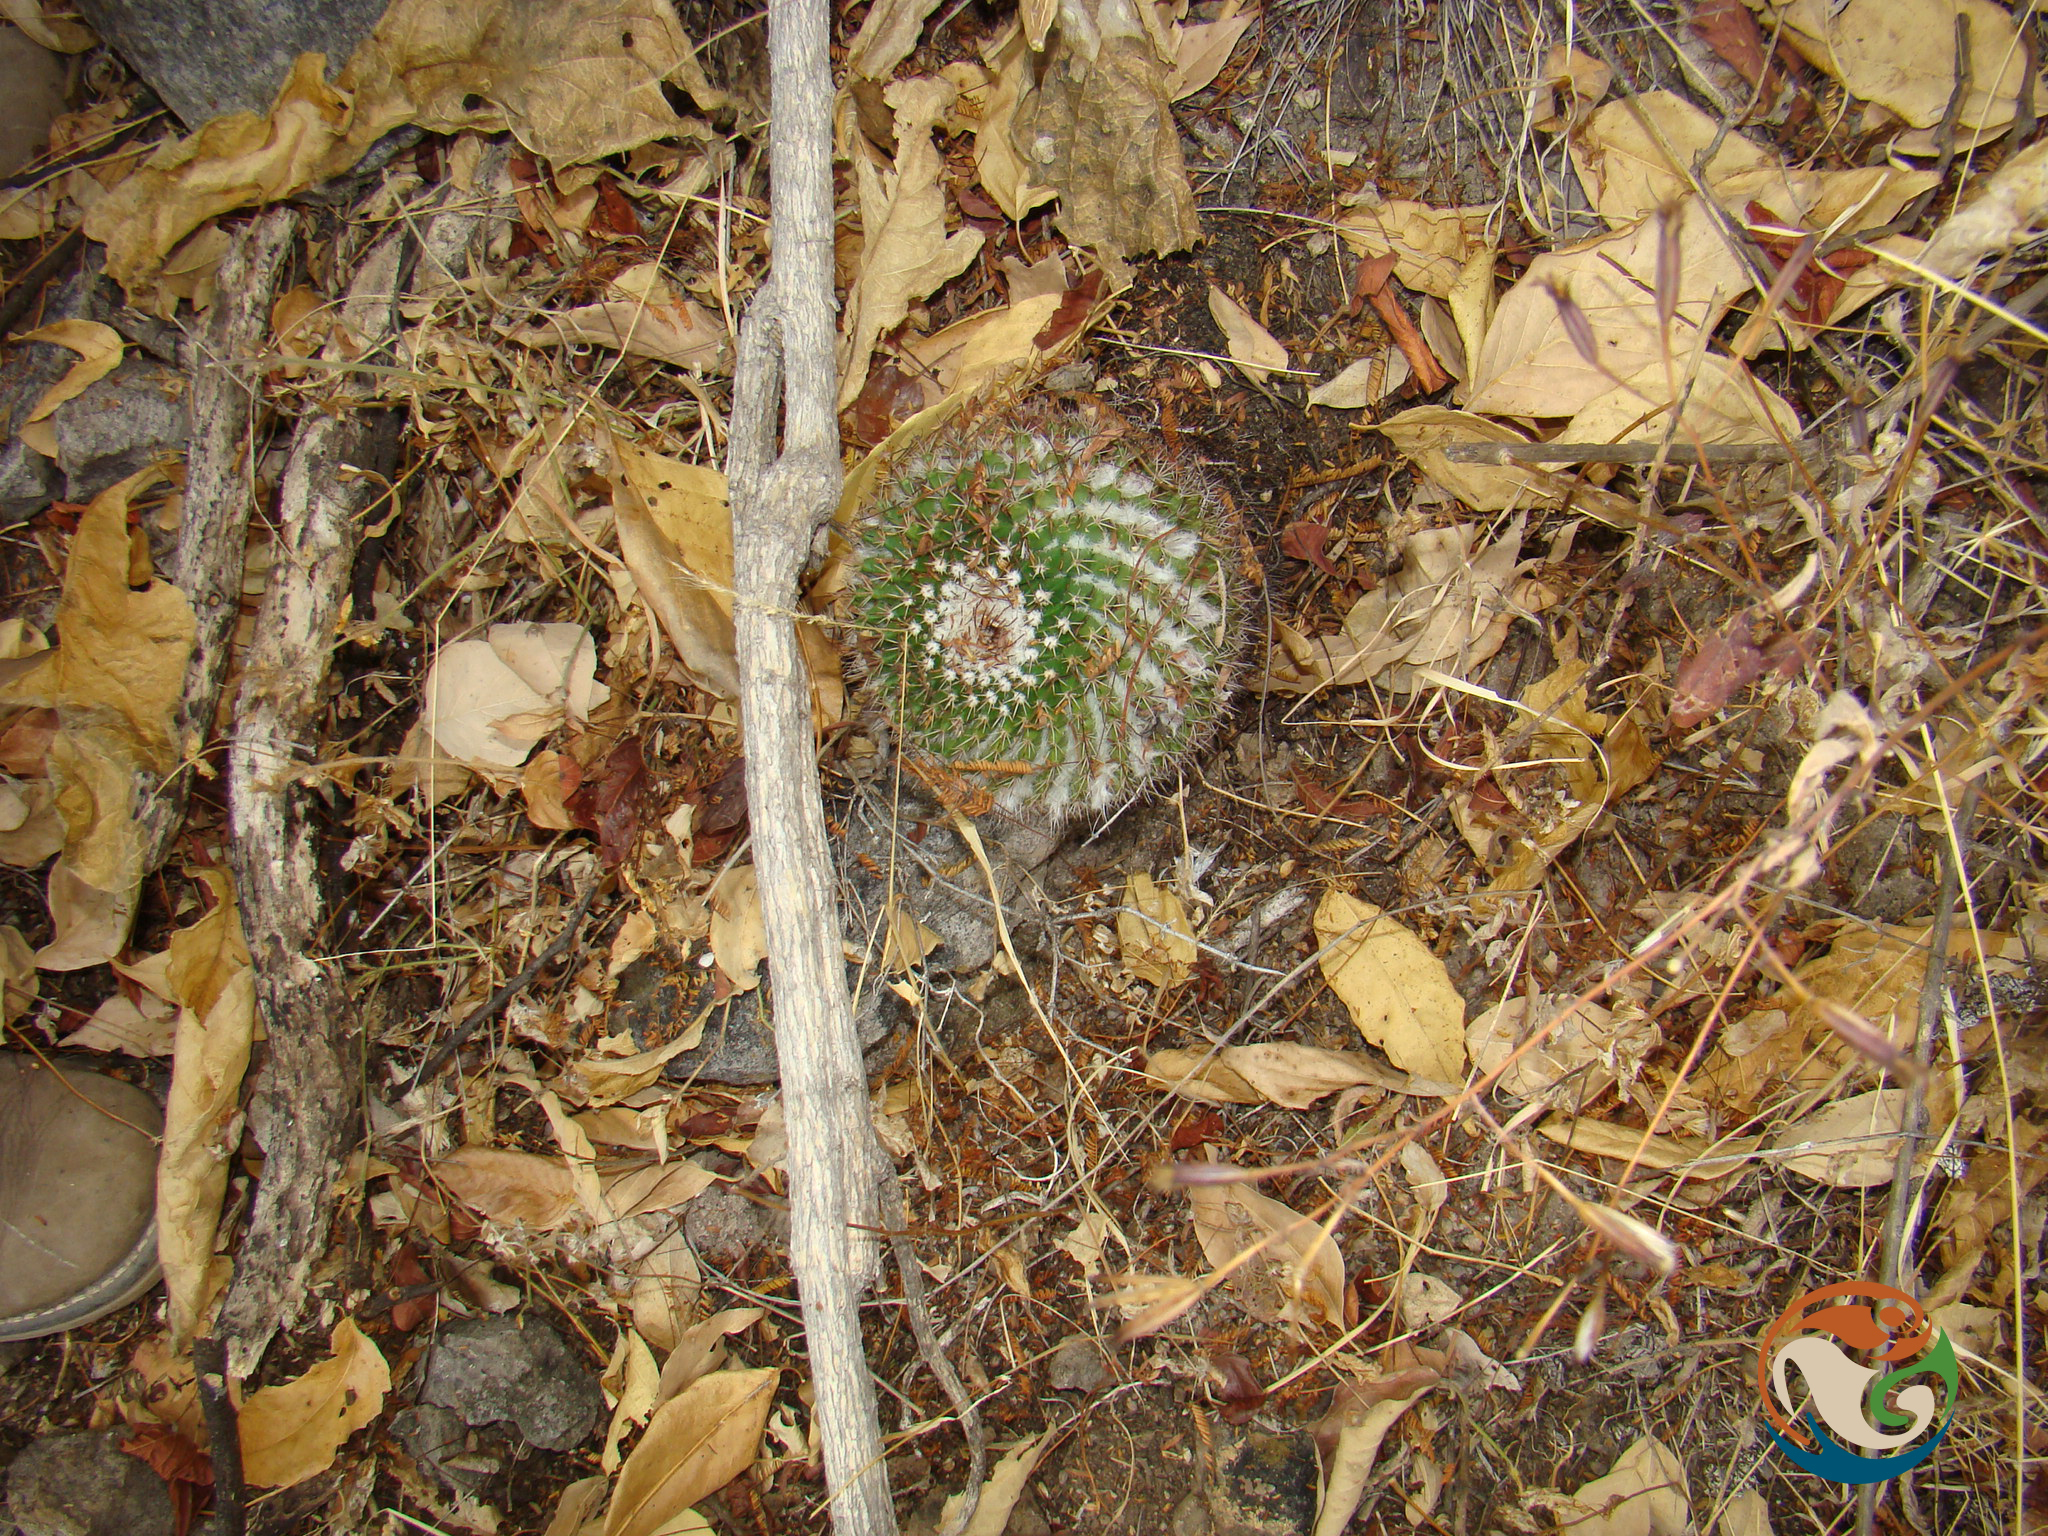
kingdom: Plantae
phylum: Tracheophyta
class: Magnoliopsida
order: Caryophyllales
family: Cactaceae
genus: Mammillaria
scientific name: Mammillaria mystax
